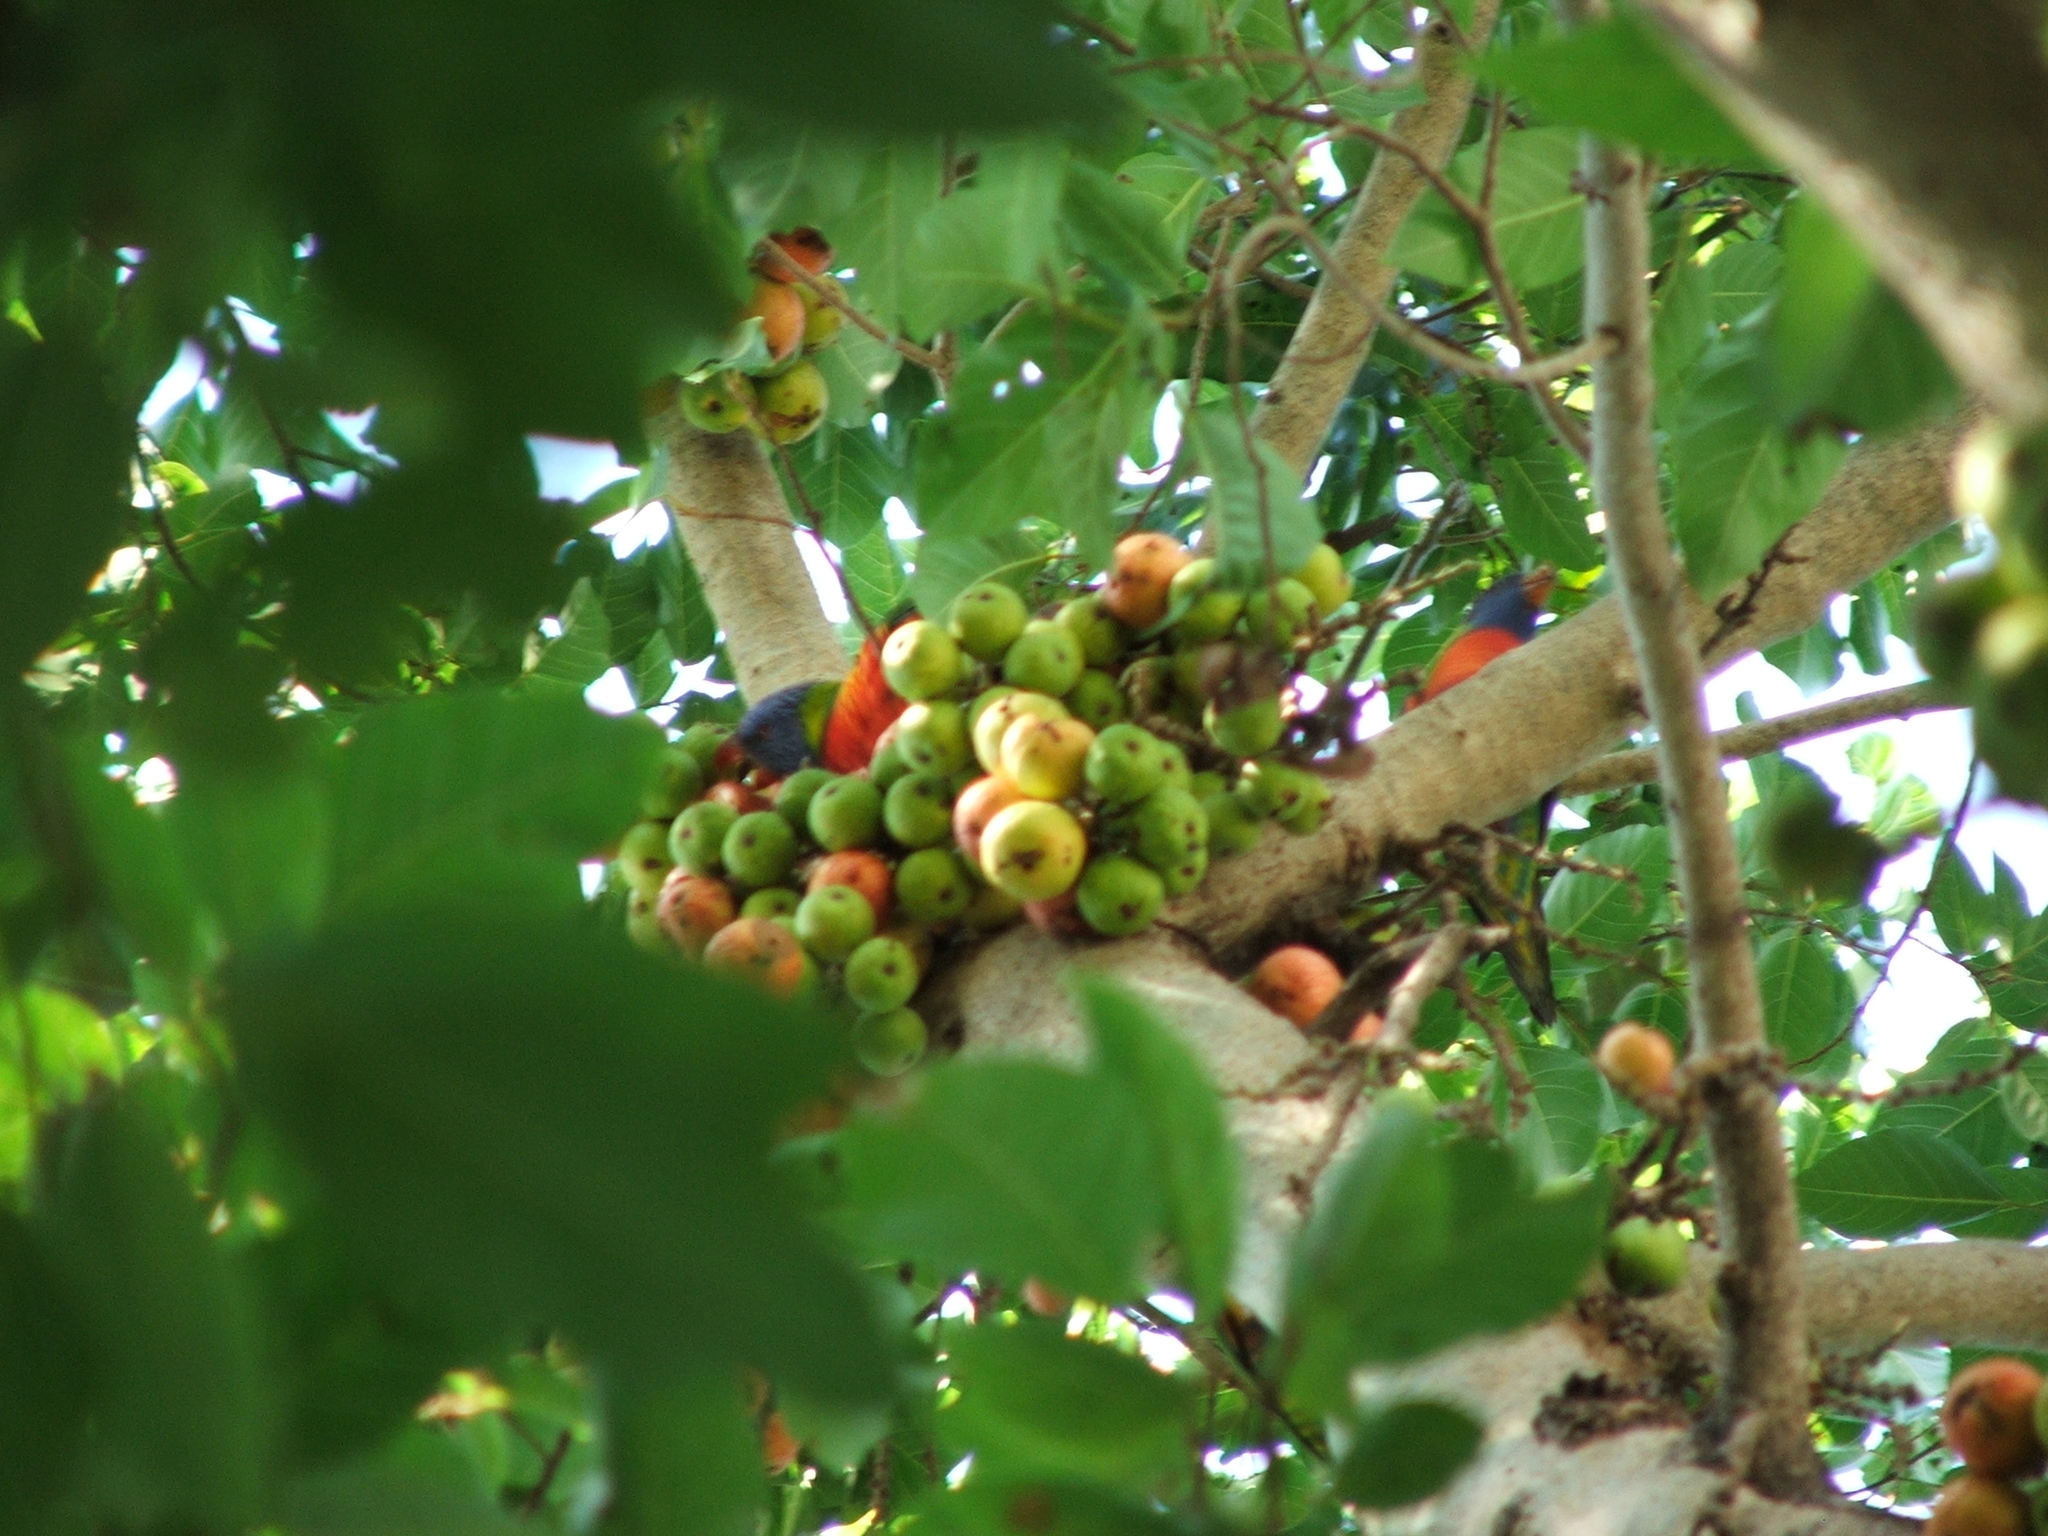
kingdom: Animalia
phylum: Chordata
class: Aves
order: Psittaciformes
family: Psittacidae
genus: Trichoglossus
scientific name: Trichoglossus haematodus
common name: Coconut lorikeet
